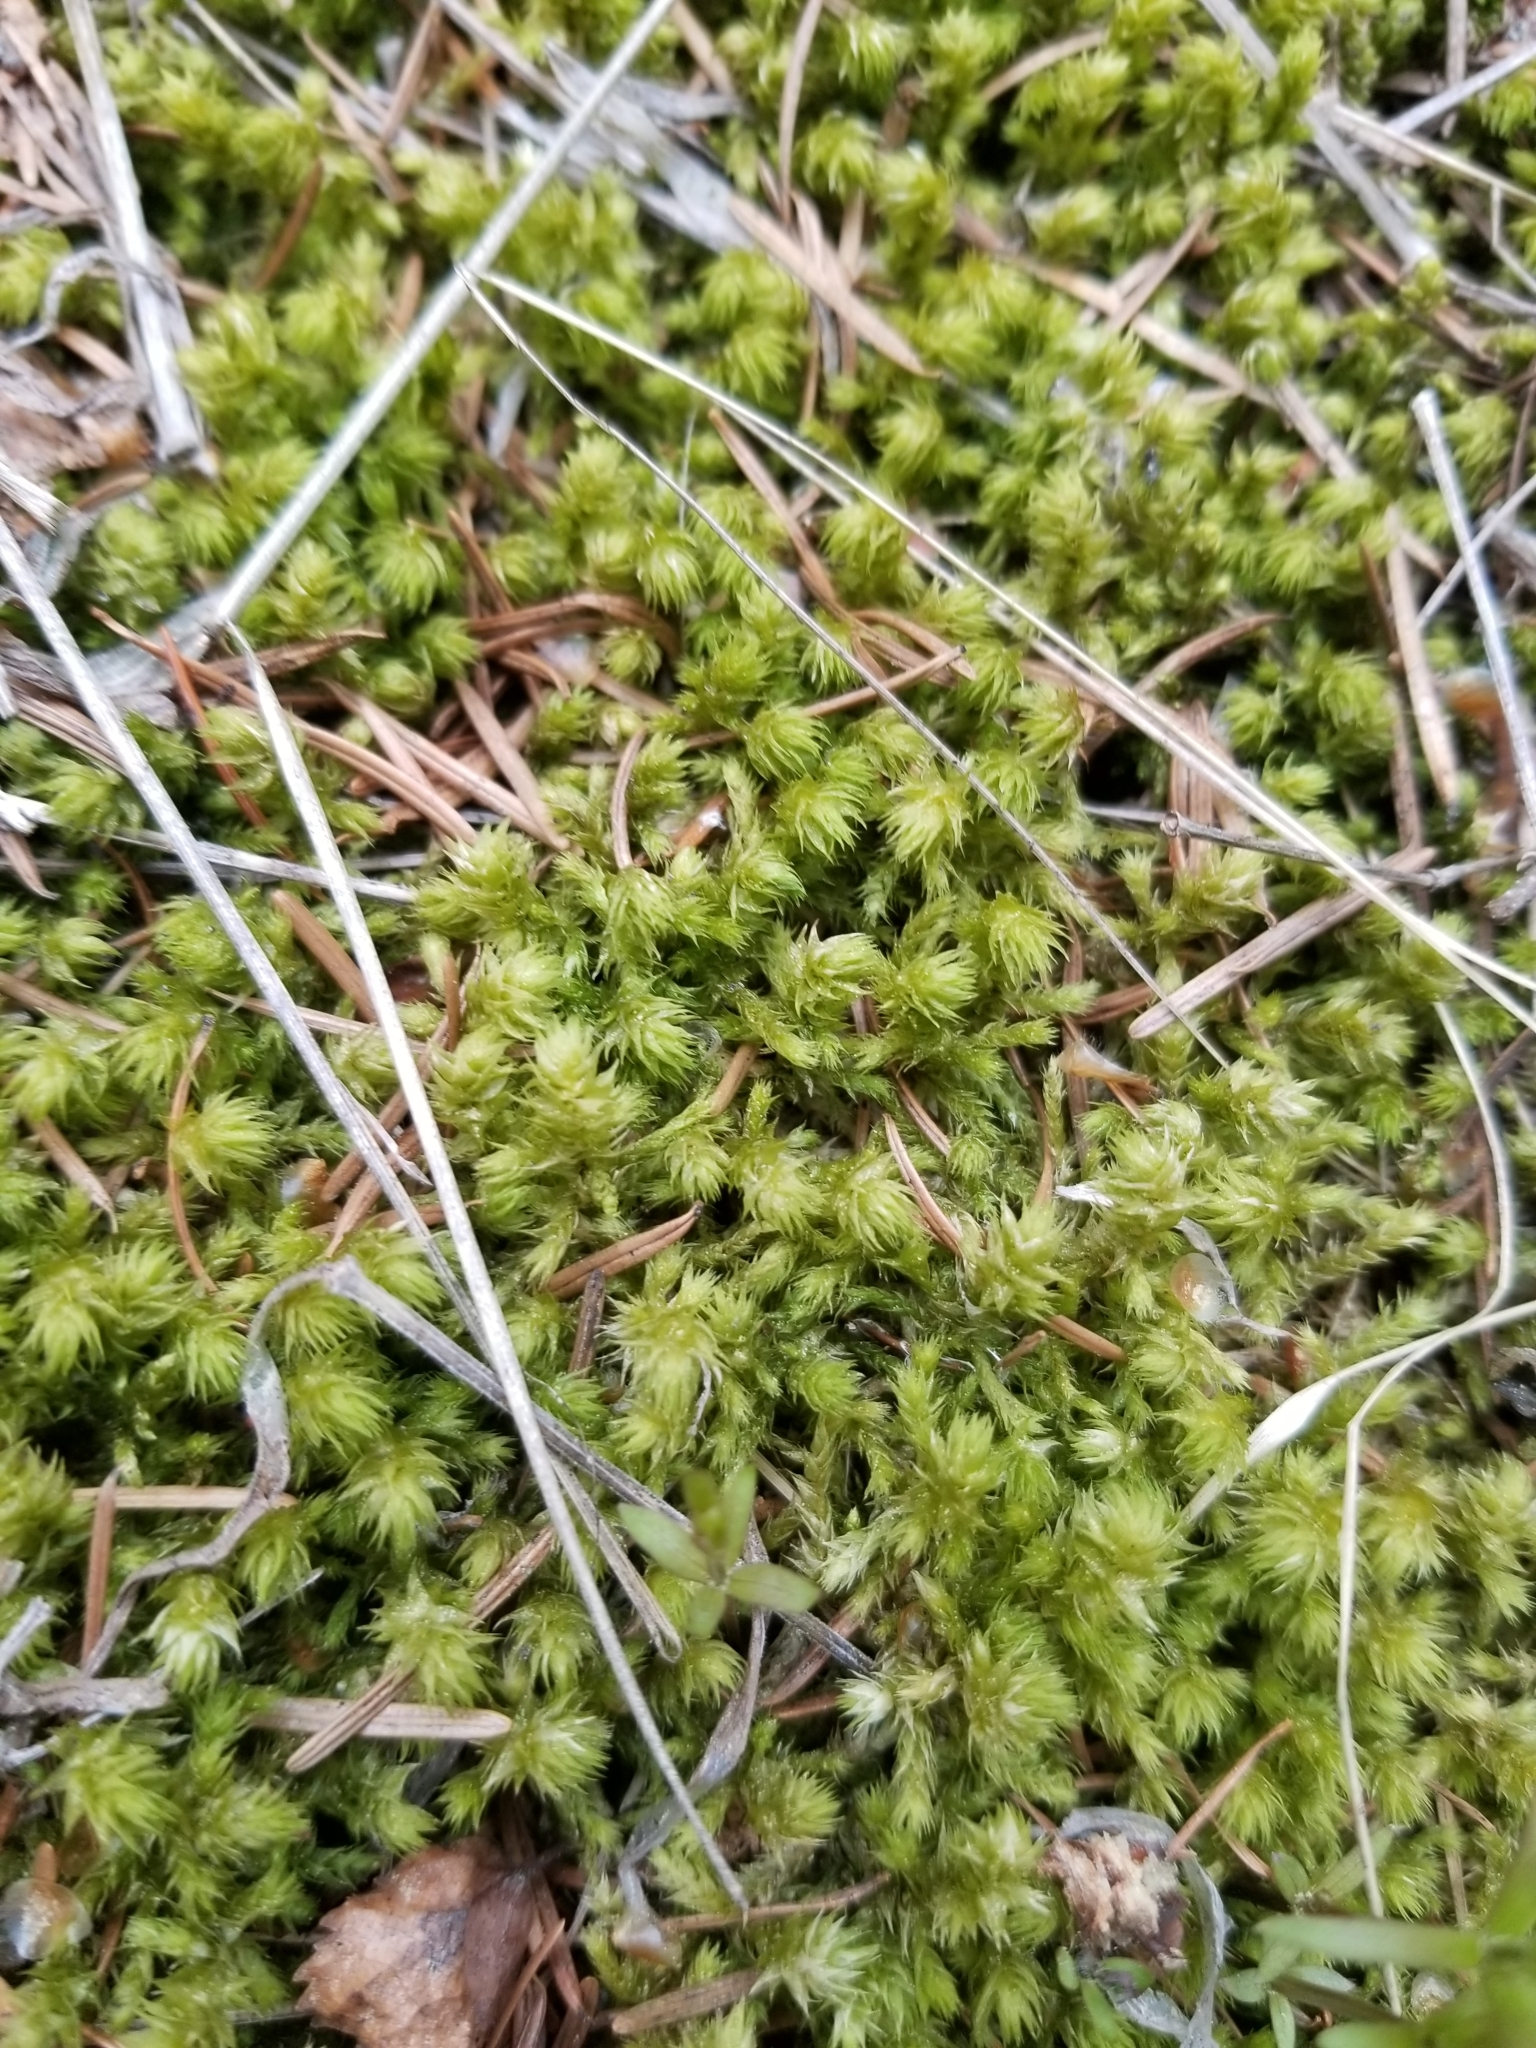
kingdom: Plantae
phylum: Bryophyta
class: Bryopsida
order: Hypnales
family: Hylocomiaceae
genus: Hylocomiadelphus
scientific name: Hylocomiadelphus triquetrus
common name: Rough goose neck moss
